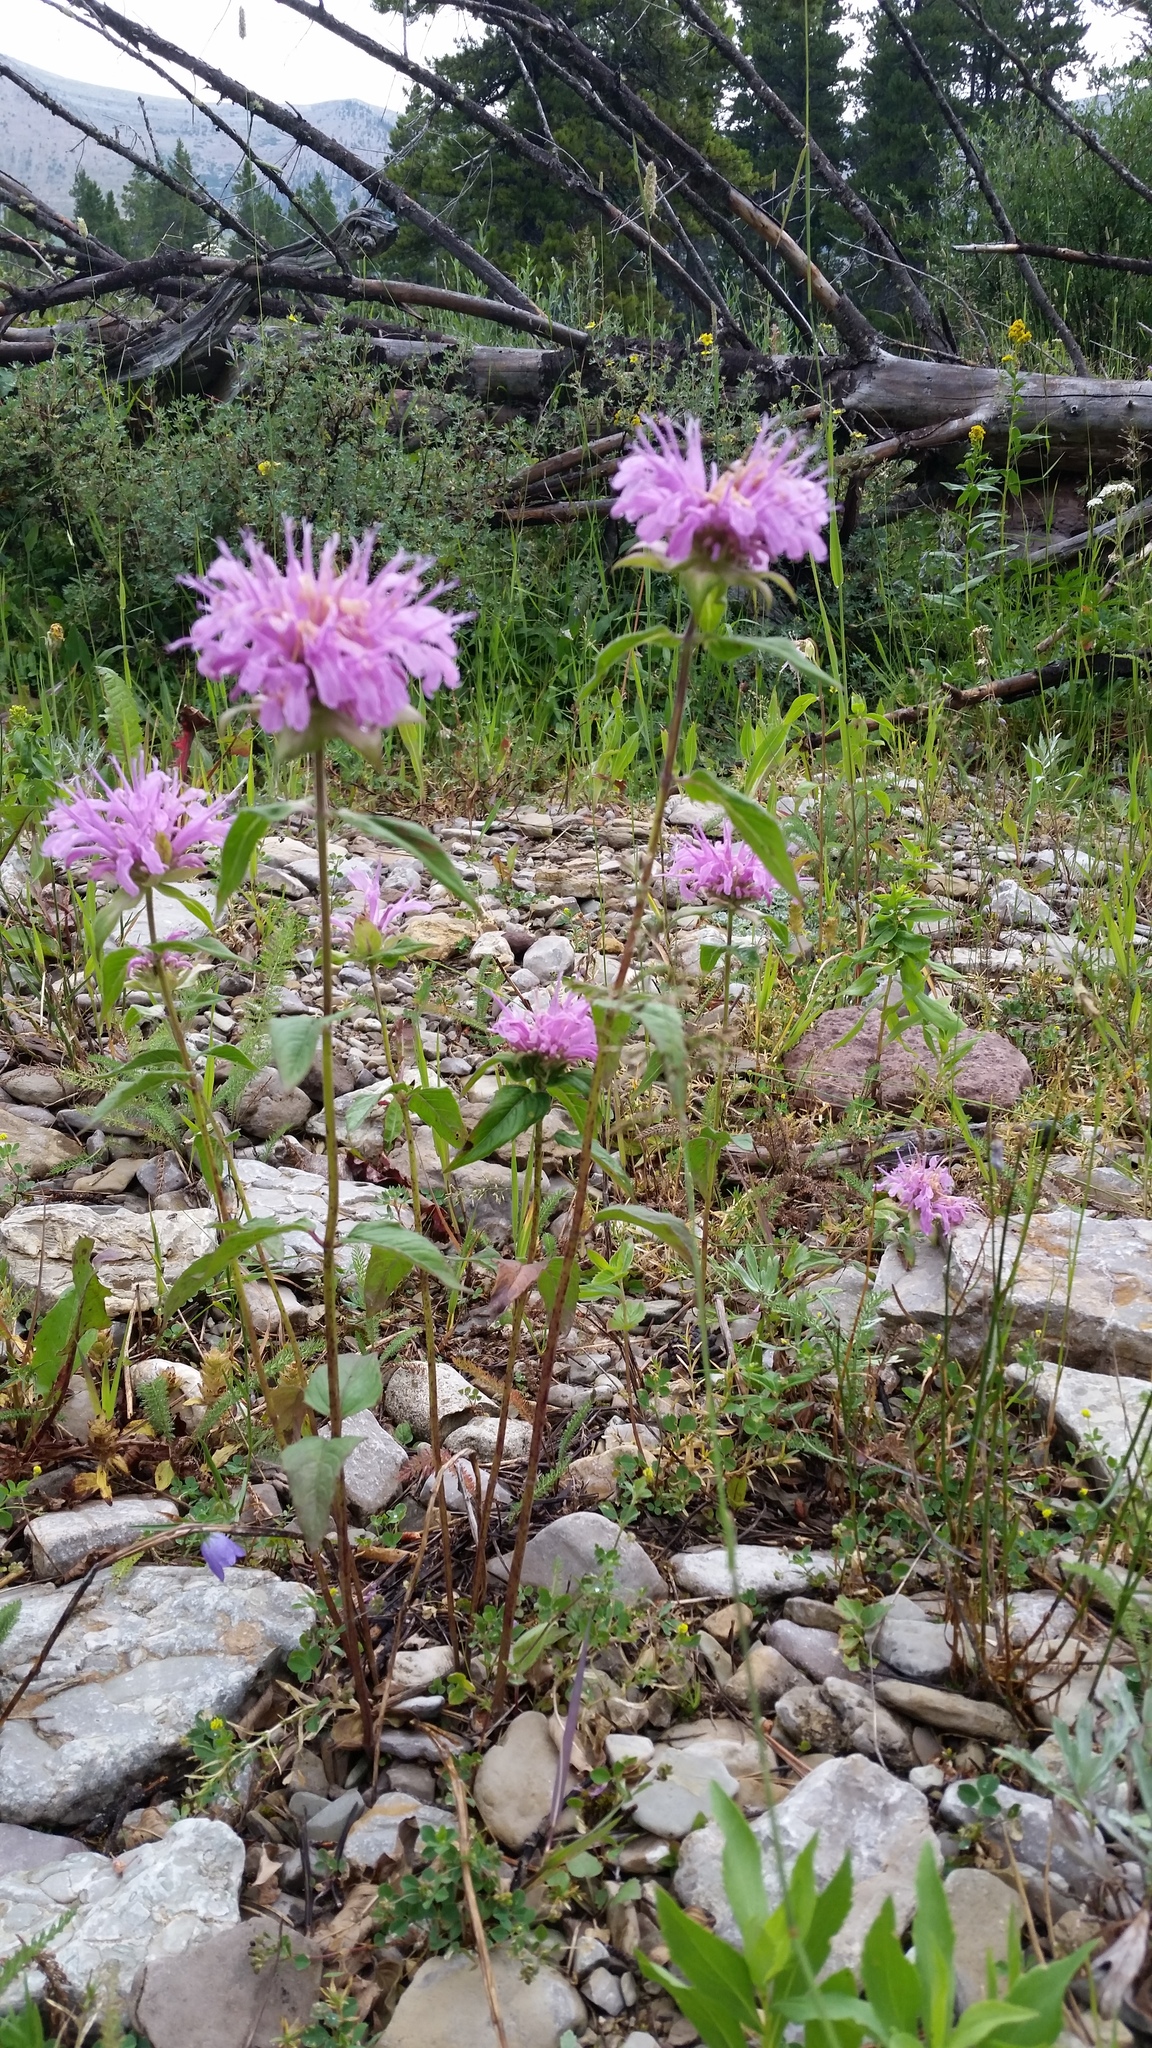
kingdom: Plantae
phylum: Tracheophyta
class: Magnoliopsida
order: Lamiales
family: Lamiaceae
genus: Monarda
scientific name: Monarda fistulosa
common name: Purple beebalm
